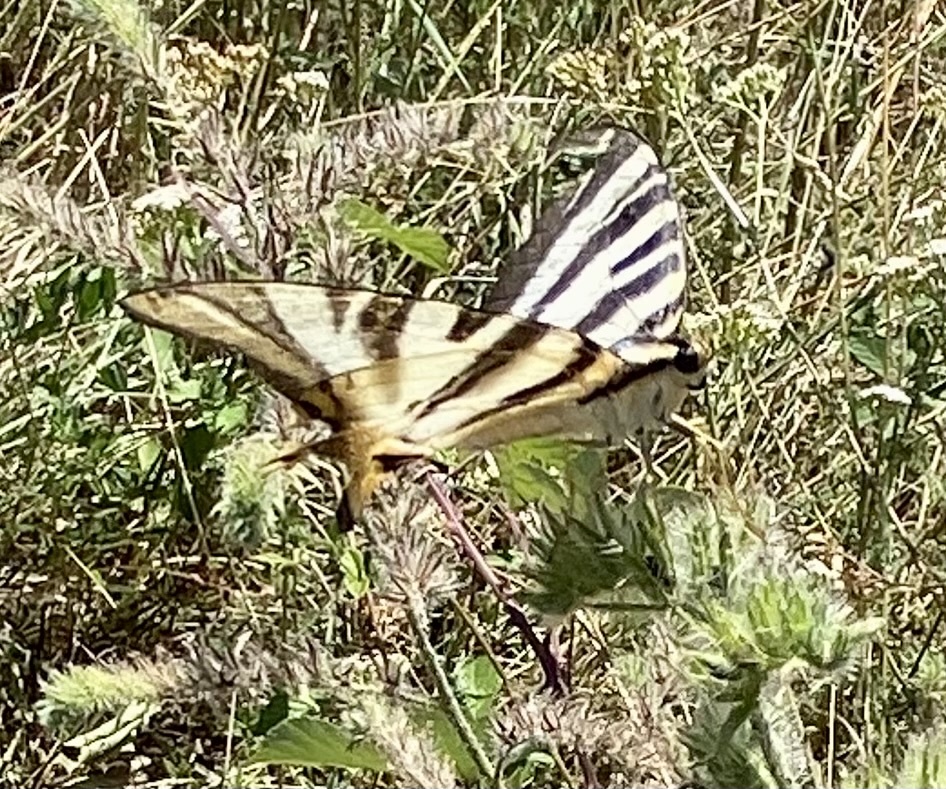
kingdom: Animalia
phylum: Arthropoda
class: Insecta
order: Lepidoptera
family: Papilionidae
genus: Iphiclides
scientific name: Iphiclides feisthamelii
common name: Iberian scarce swallowtail
